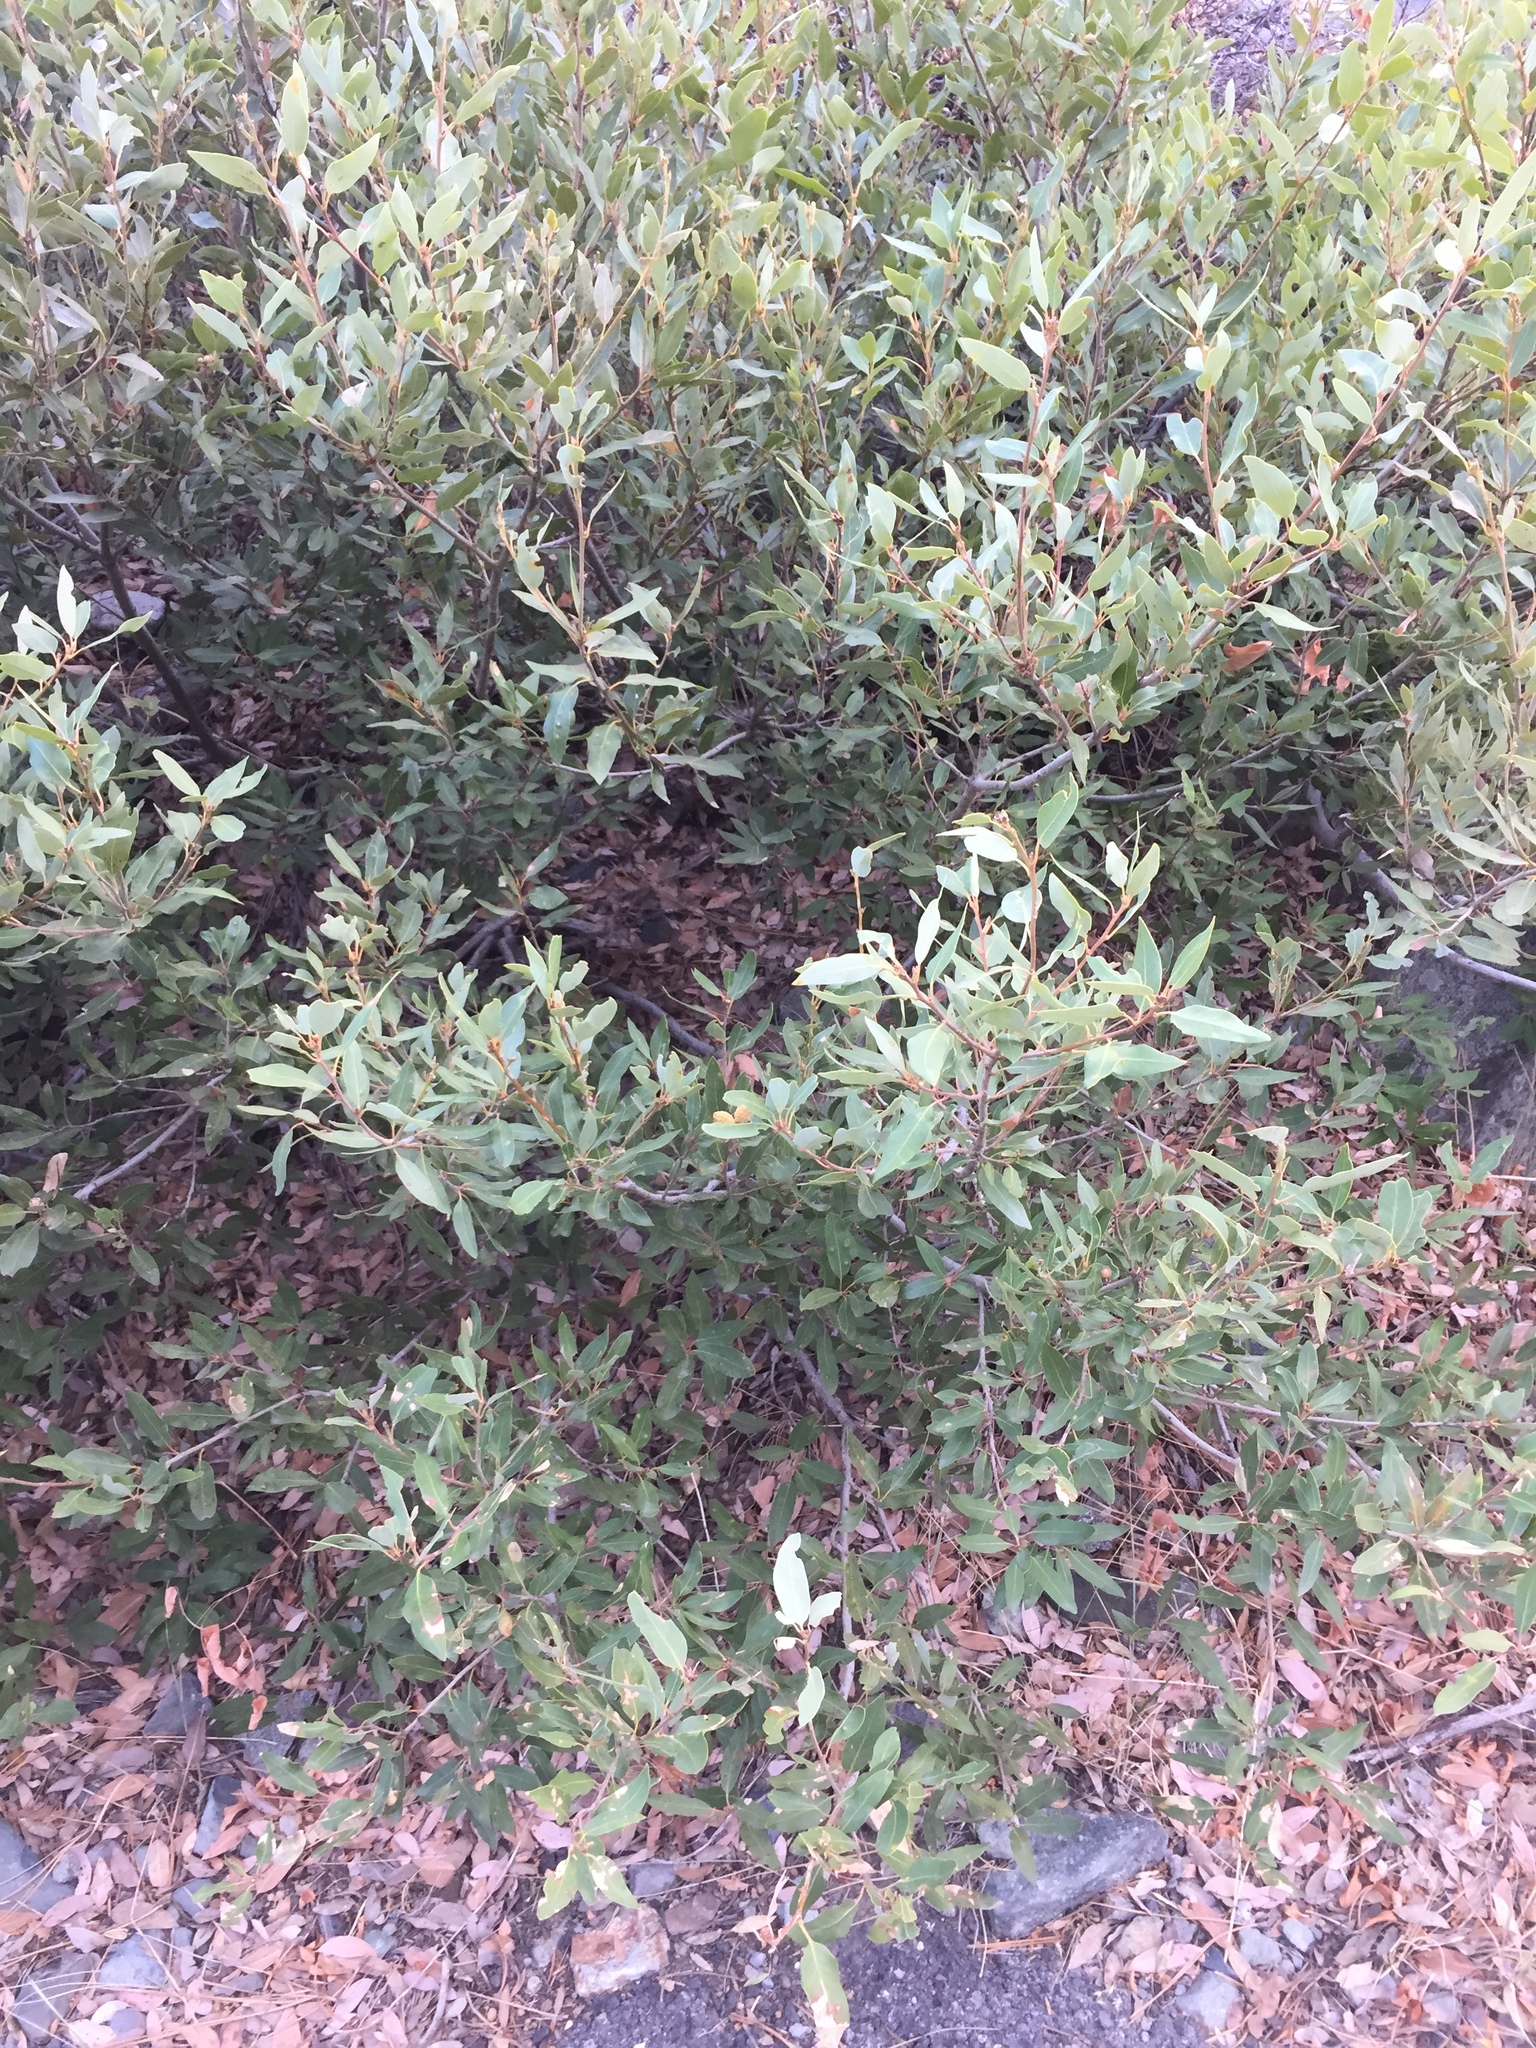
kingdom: Plantae
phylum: Tracheophyta
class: Magnoliopsida
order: Fagales
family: Fagaceae
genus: Quercus
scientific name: Quercus vacciniifolia
